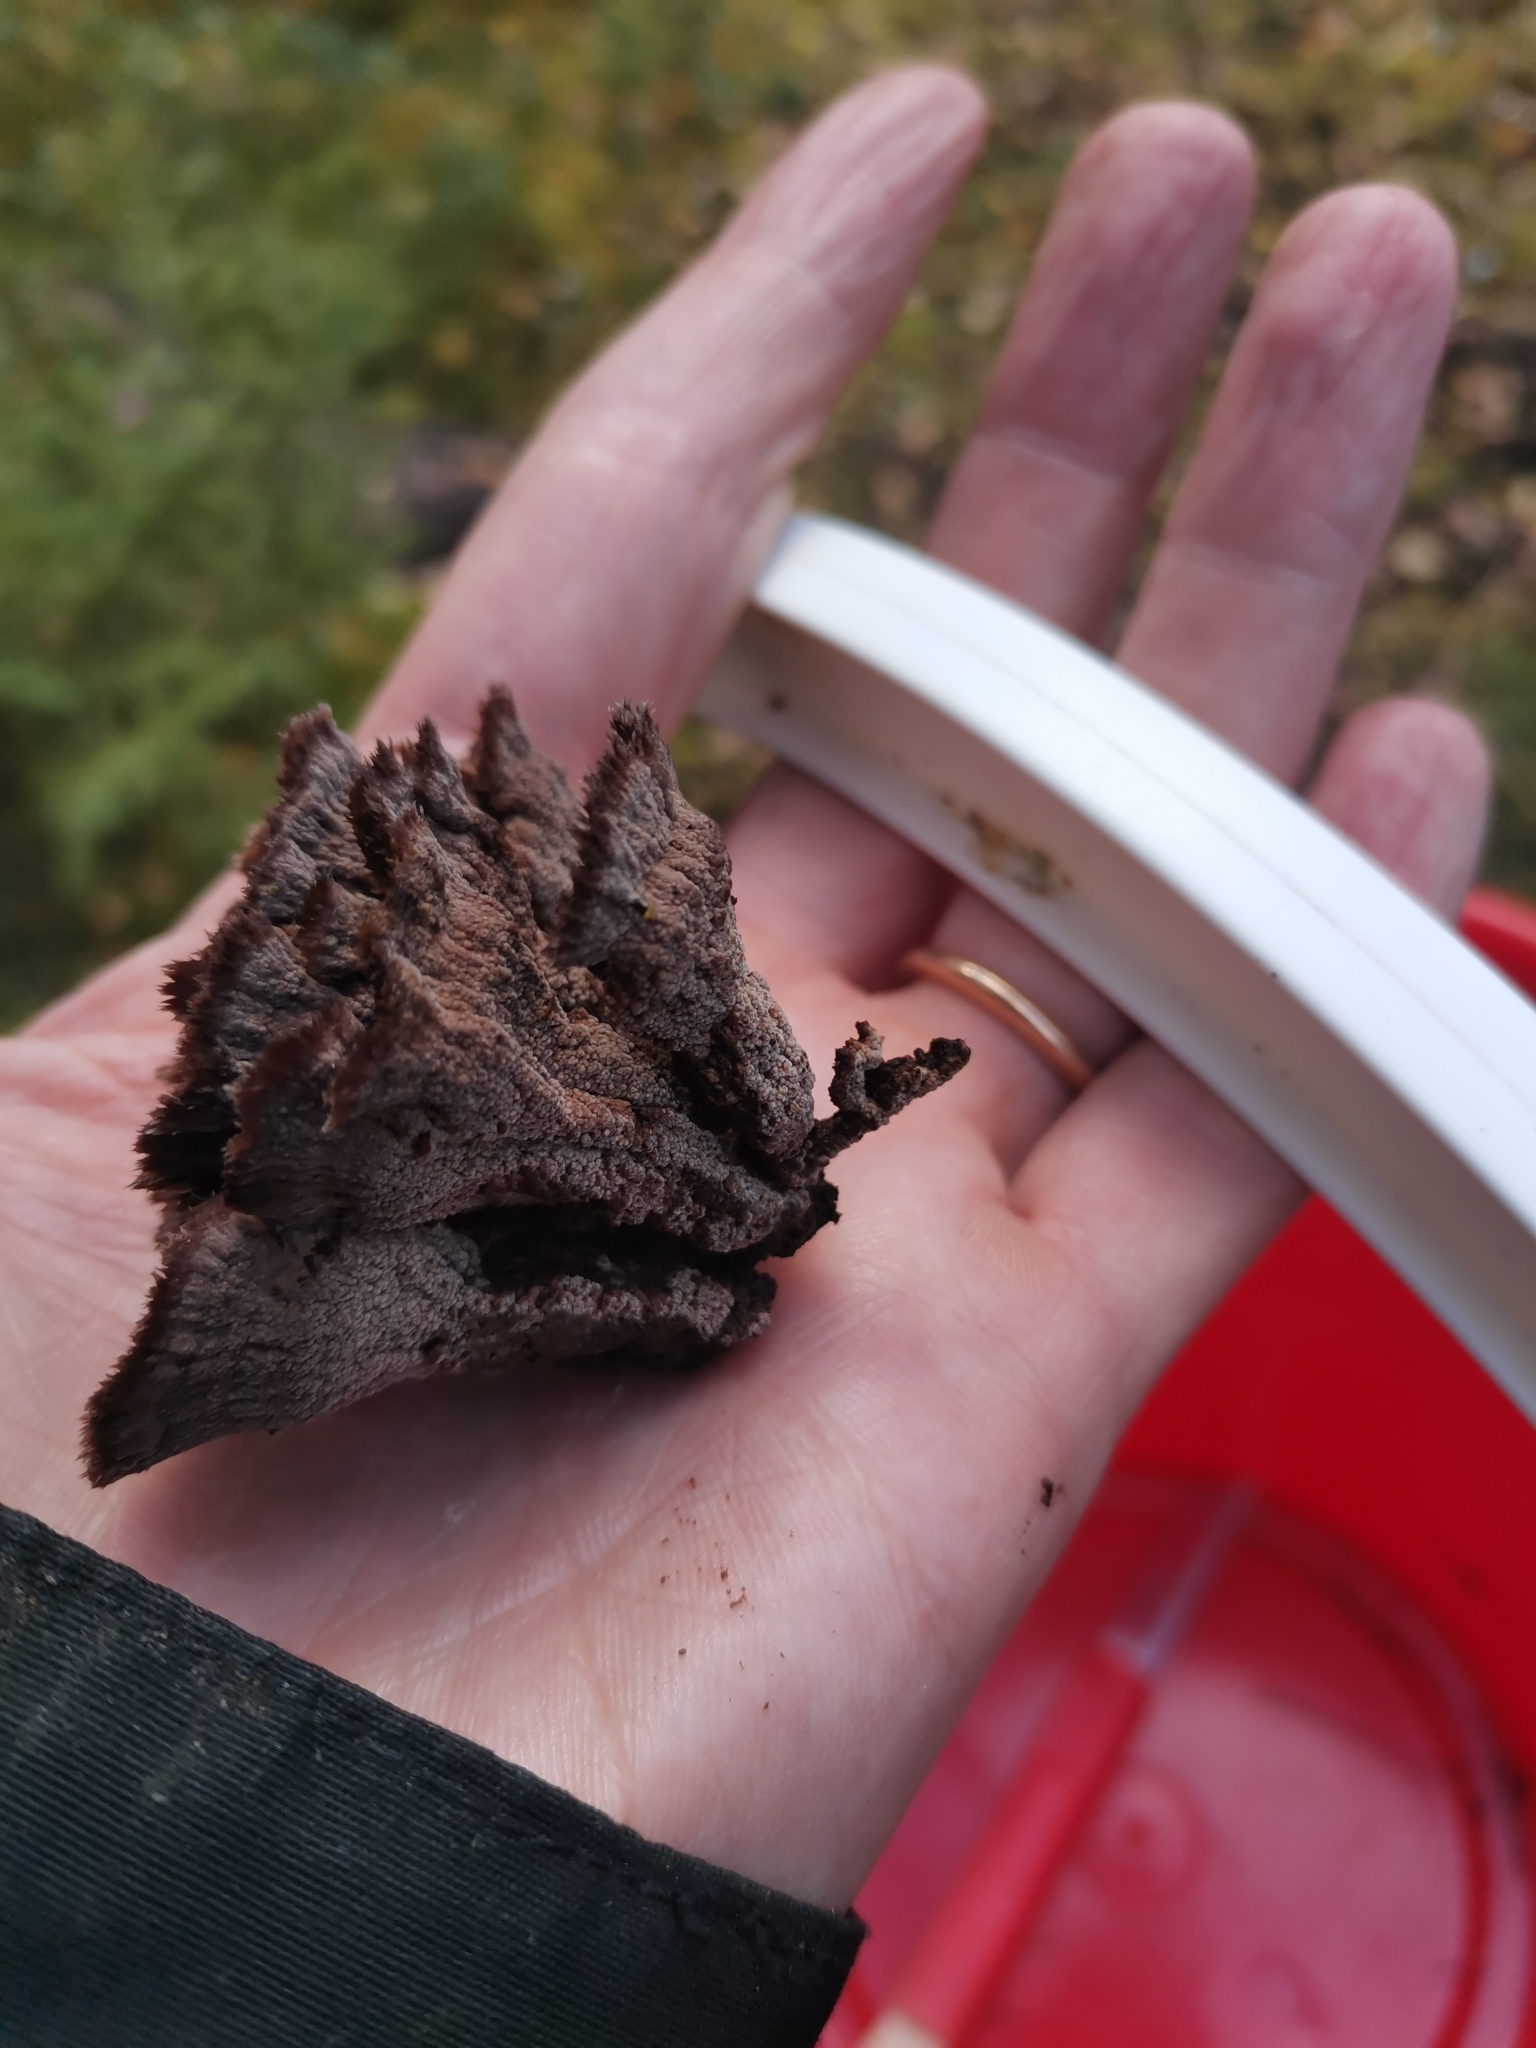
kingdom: Fungi
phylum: Basidiomycota
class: Agaricomycetes
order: Thelephorales
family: Thelephoraceae
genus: Thelephora
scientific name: Thelephora terrestris
